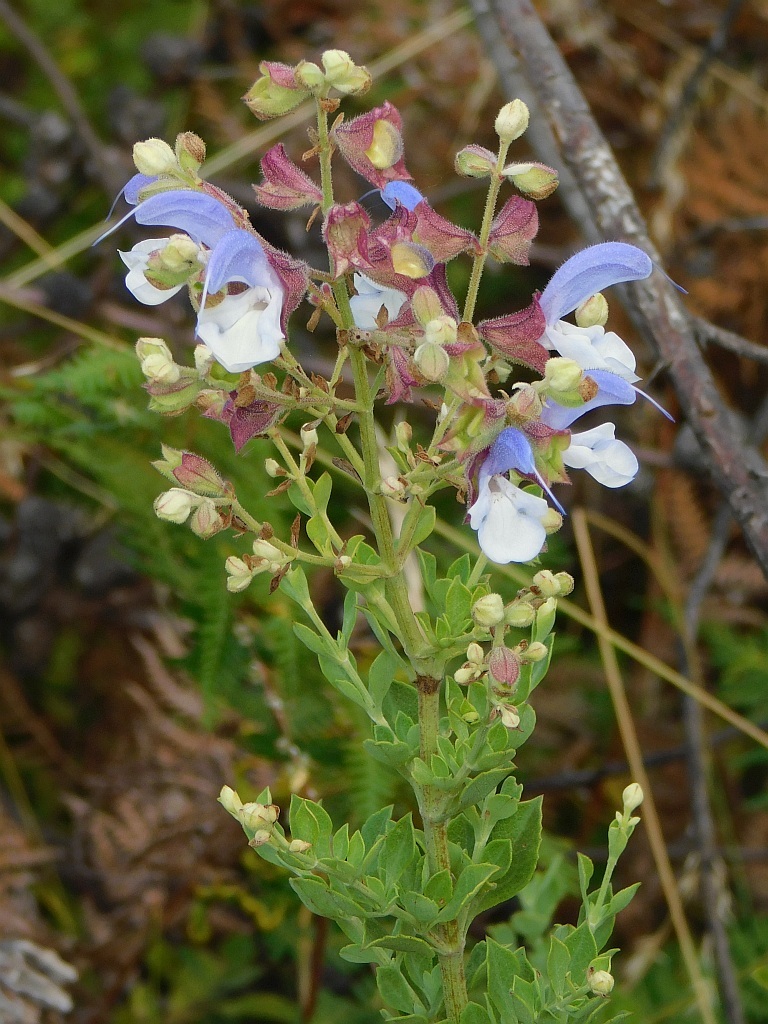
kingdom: Plantae
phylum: Tracheophyta
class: Magnoliopsida
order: Lamiales
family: Lamiaceae
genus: Salvia
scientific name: Salvia chamelaeagnea
